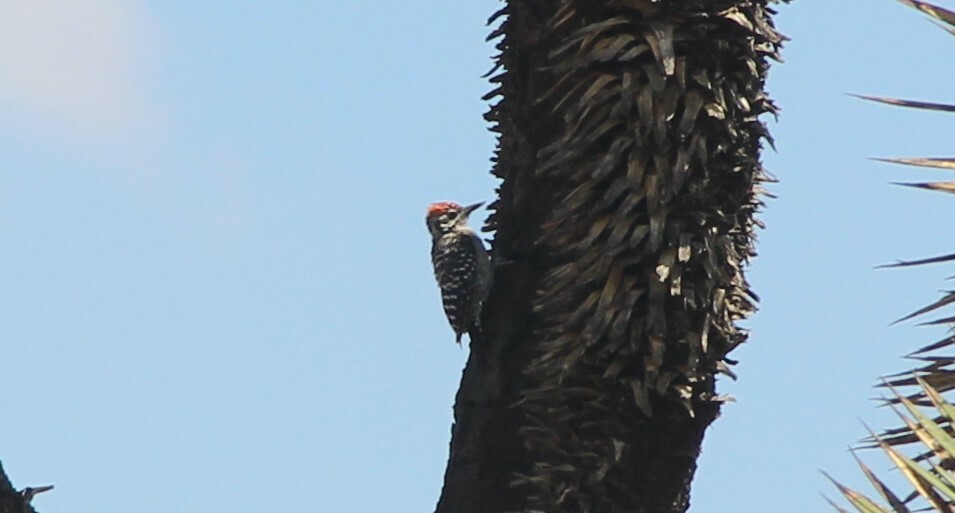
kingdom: Animalia
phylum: Chordata
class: Aves
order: Piciformes
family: Picidae
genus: Dryobates
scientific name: Dryobates scalaris
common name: Ladder-backed woodpecker
